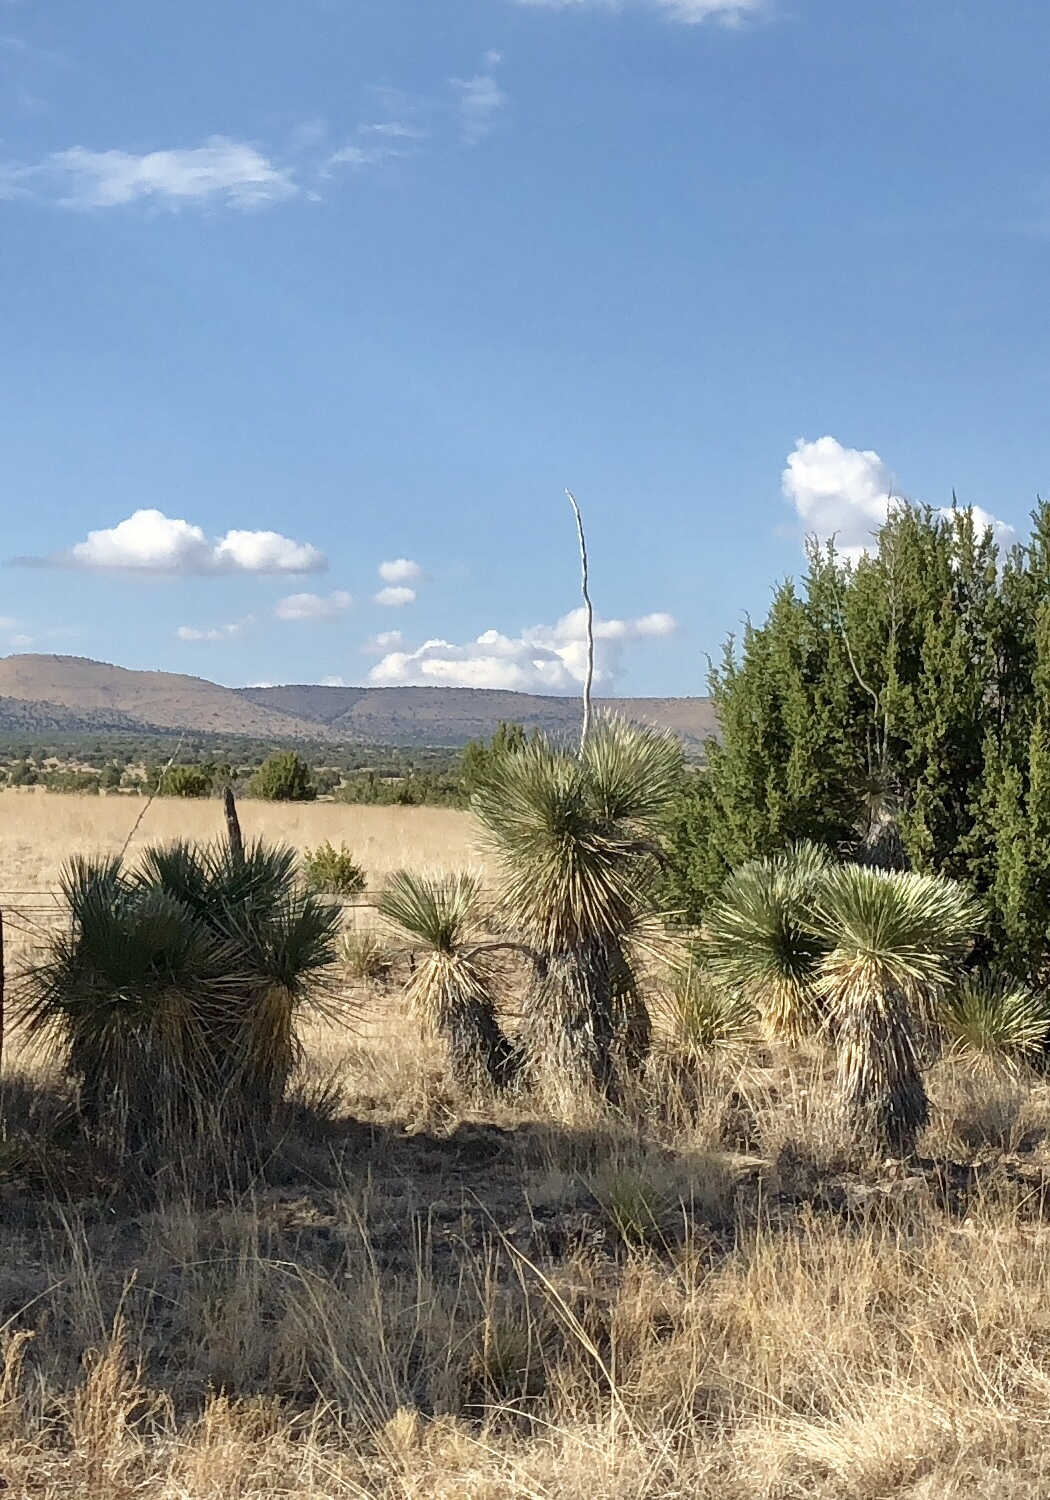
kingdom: Plantae
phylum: Tracheophyta
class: Liliopsida
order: Asparagales
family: Asparagaceae
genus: Yucca
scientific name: Yucca elata
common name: Palmella
